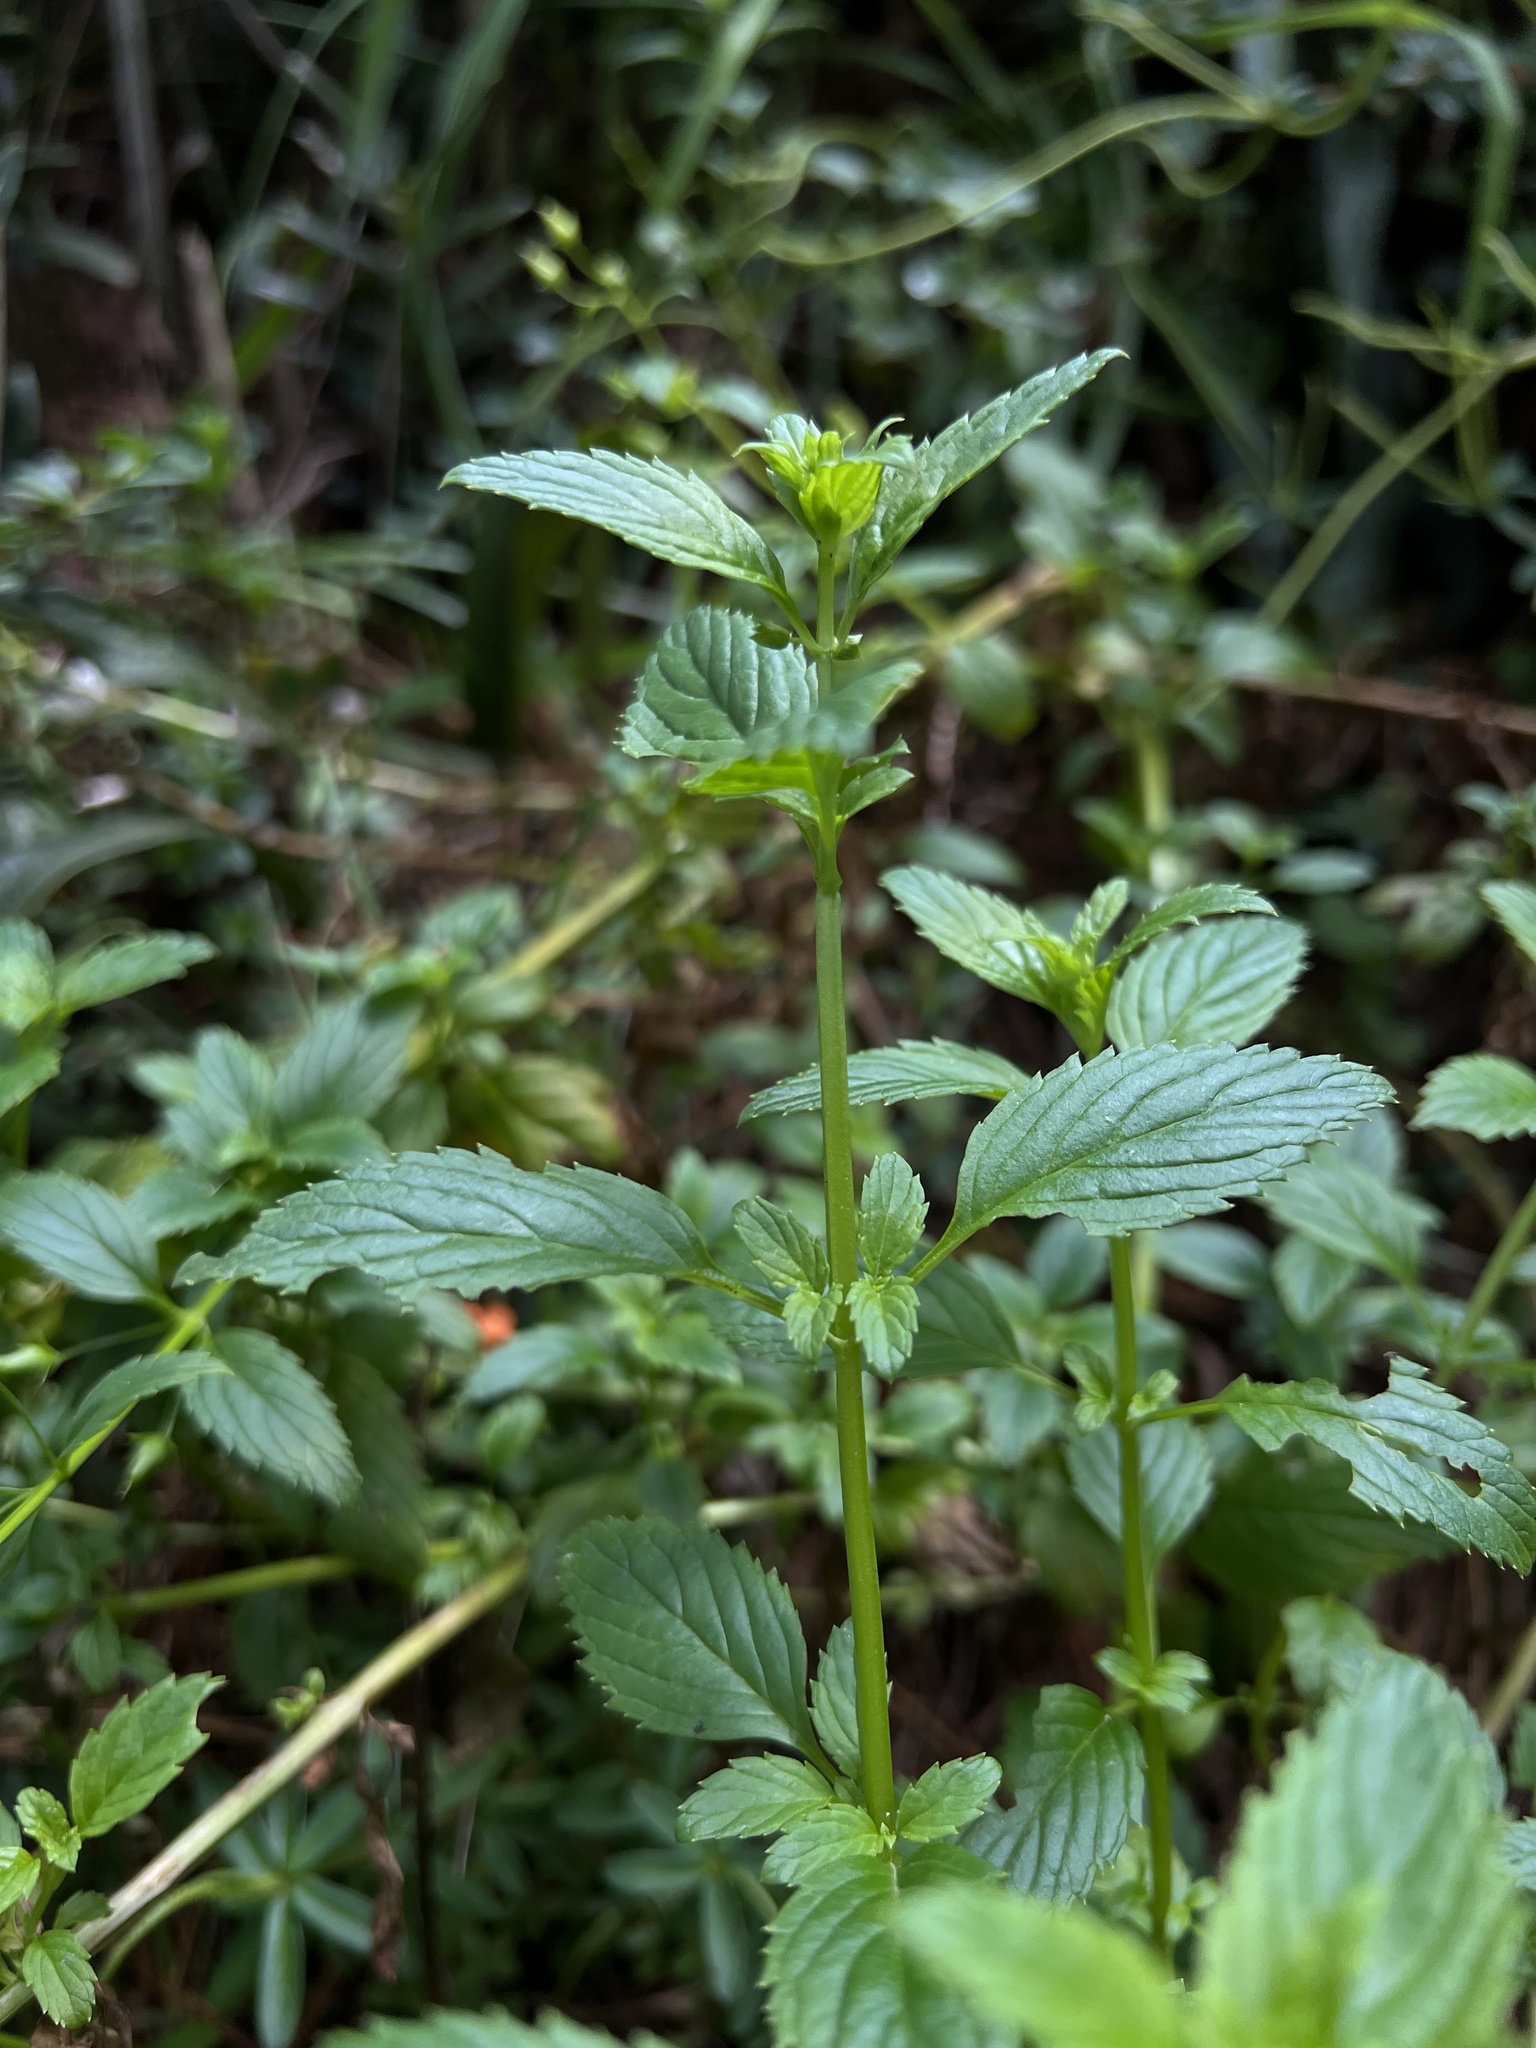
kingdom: Plantae
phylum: Tracheophyta
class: Magnoliopsida
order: Lamiales
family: Scrophulariaceae
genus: Alonsoa
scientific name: Alonsoa meridionalis
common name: Maskflower
